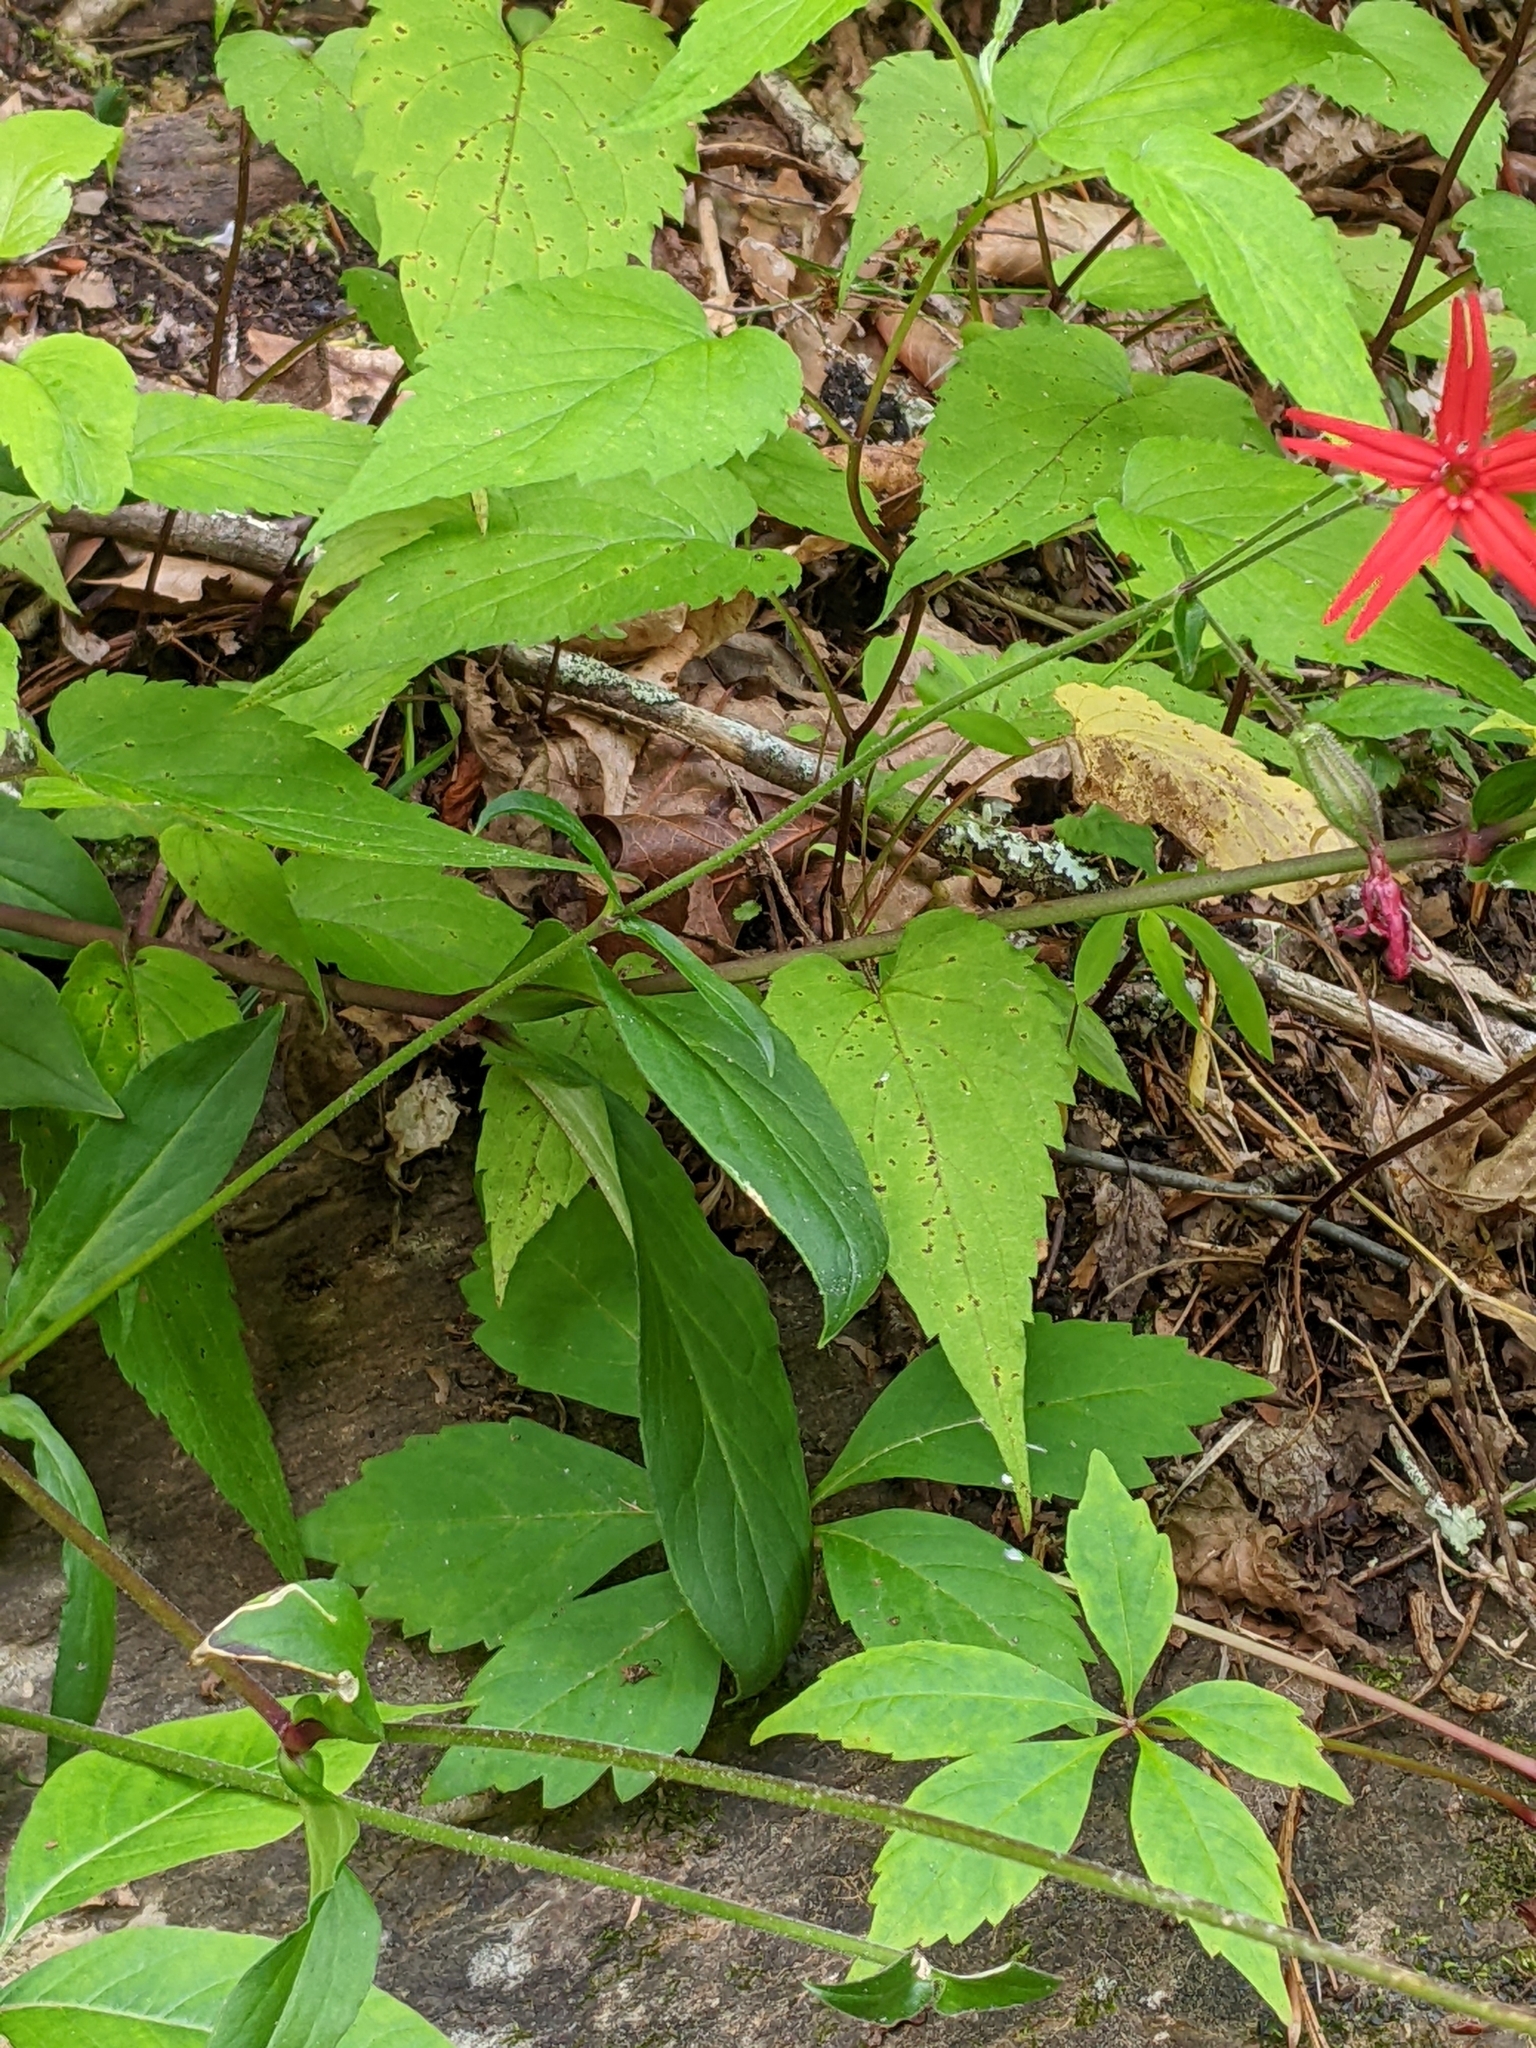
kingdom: Plantae
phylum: Tracheophyta
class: Magnoliopsida
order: Caryophyllales
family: Caryophyllaceae
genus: Silene
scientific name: Silene virginica
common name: Fire-pink
